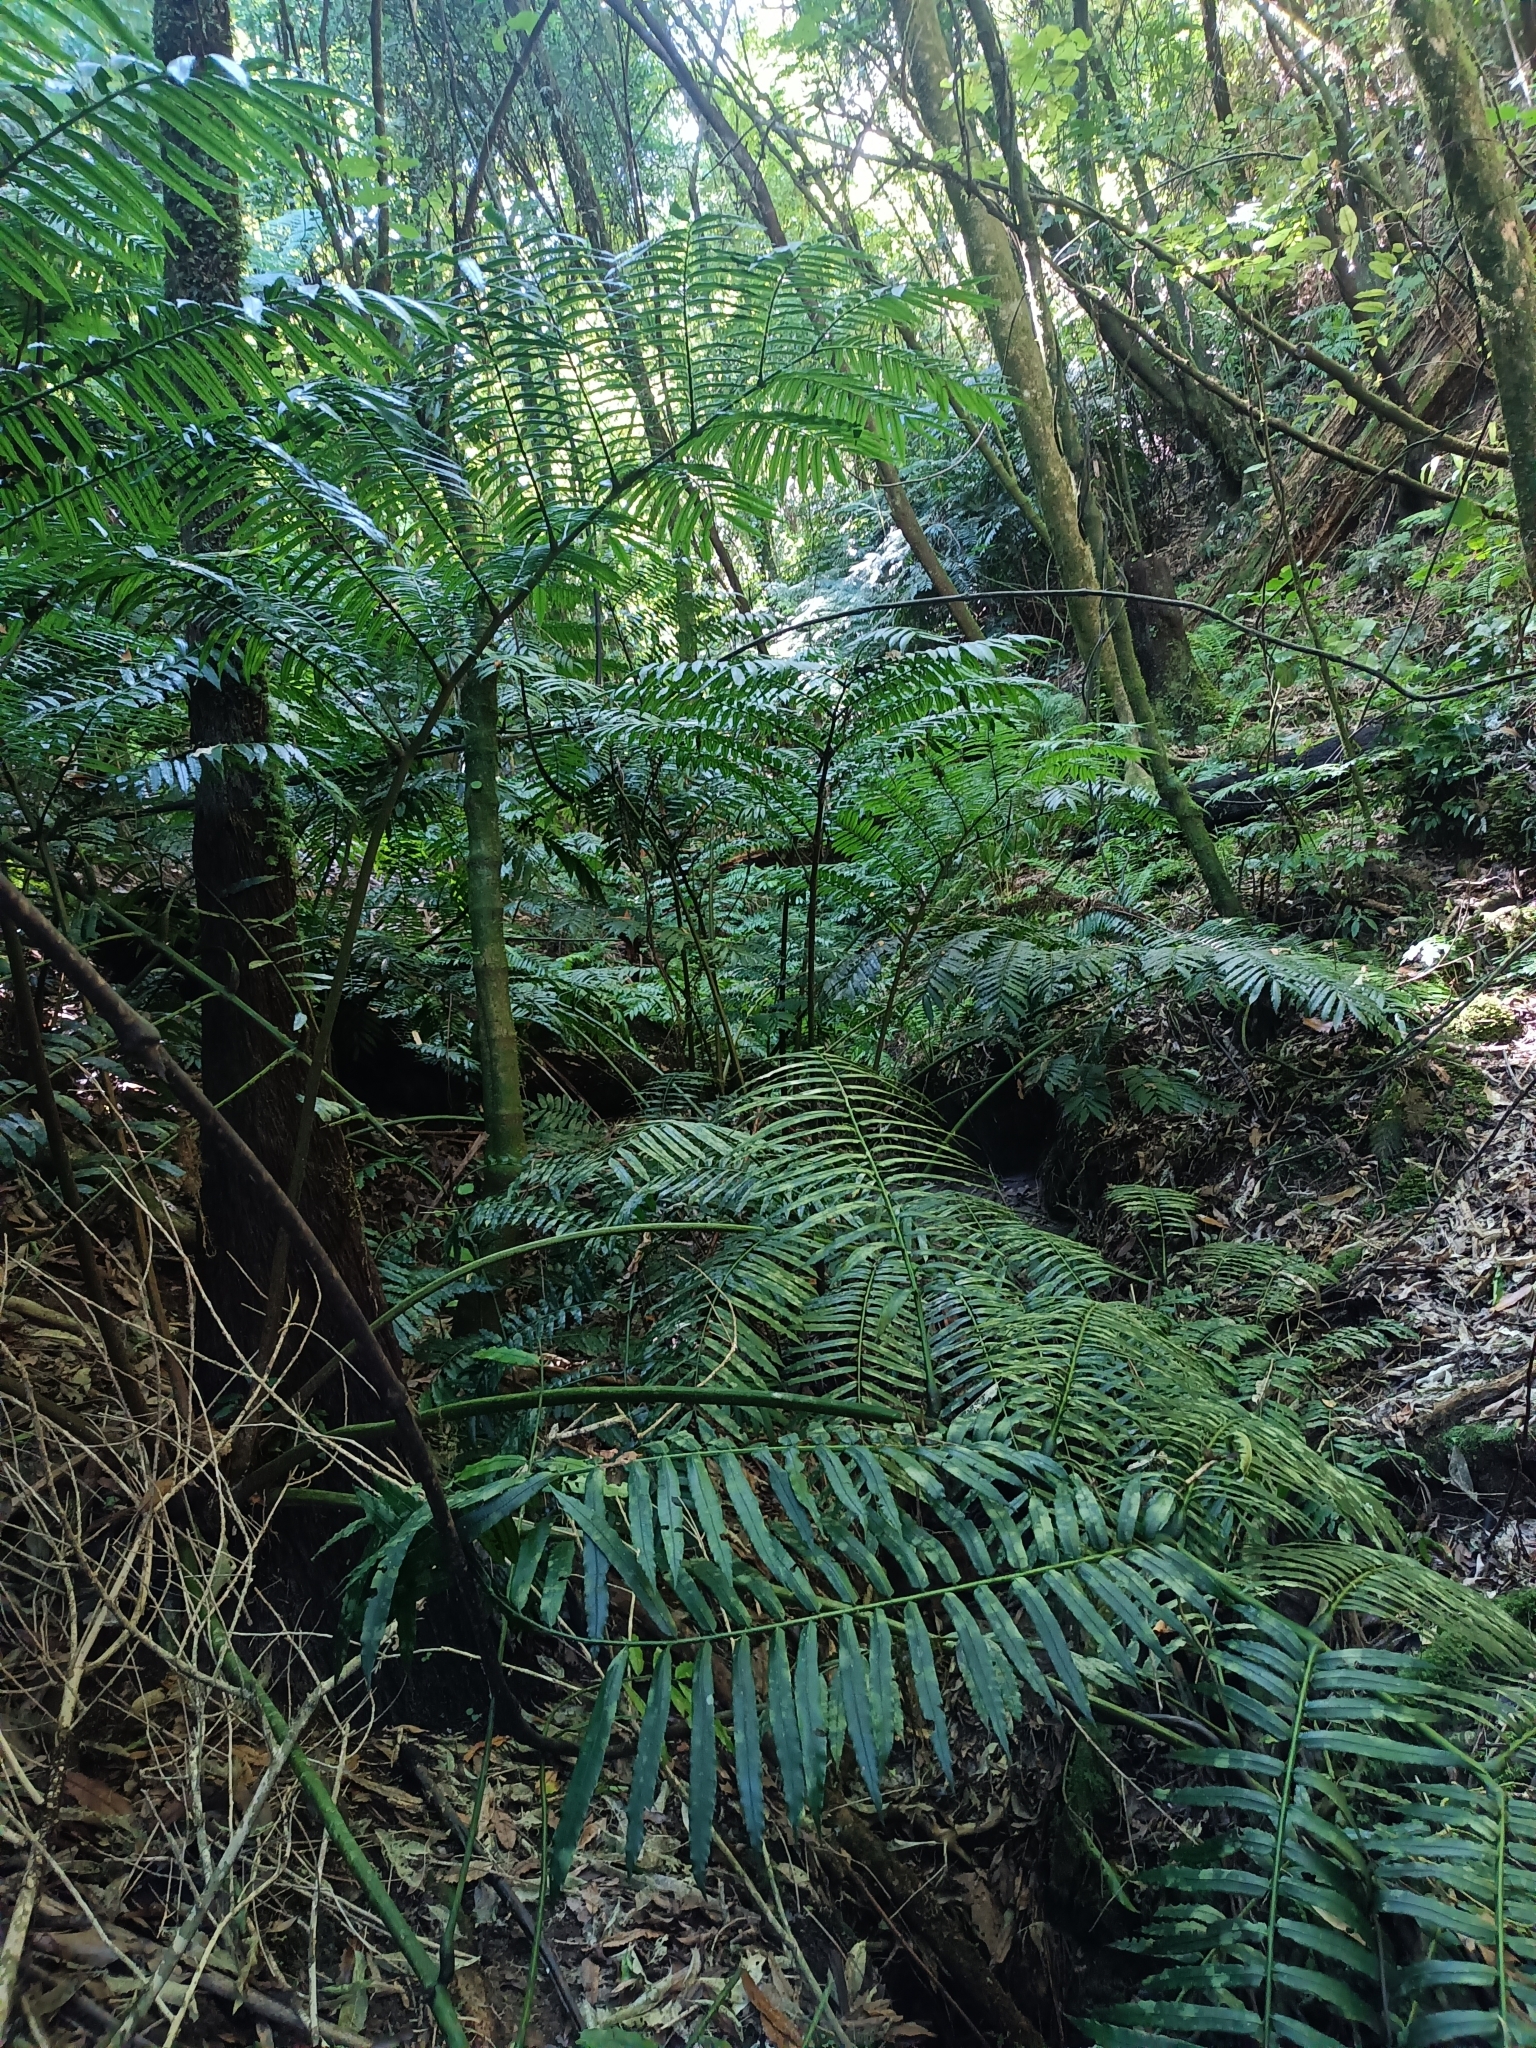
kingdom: Plantae
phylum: Tracheophyta
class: Polypodiopsida
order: Marattiales
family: Marattiaceae
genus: Angiopteris
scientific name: Angiopteris evecta
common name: Mule's-foot fern
